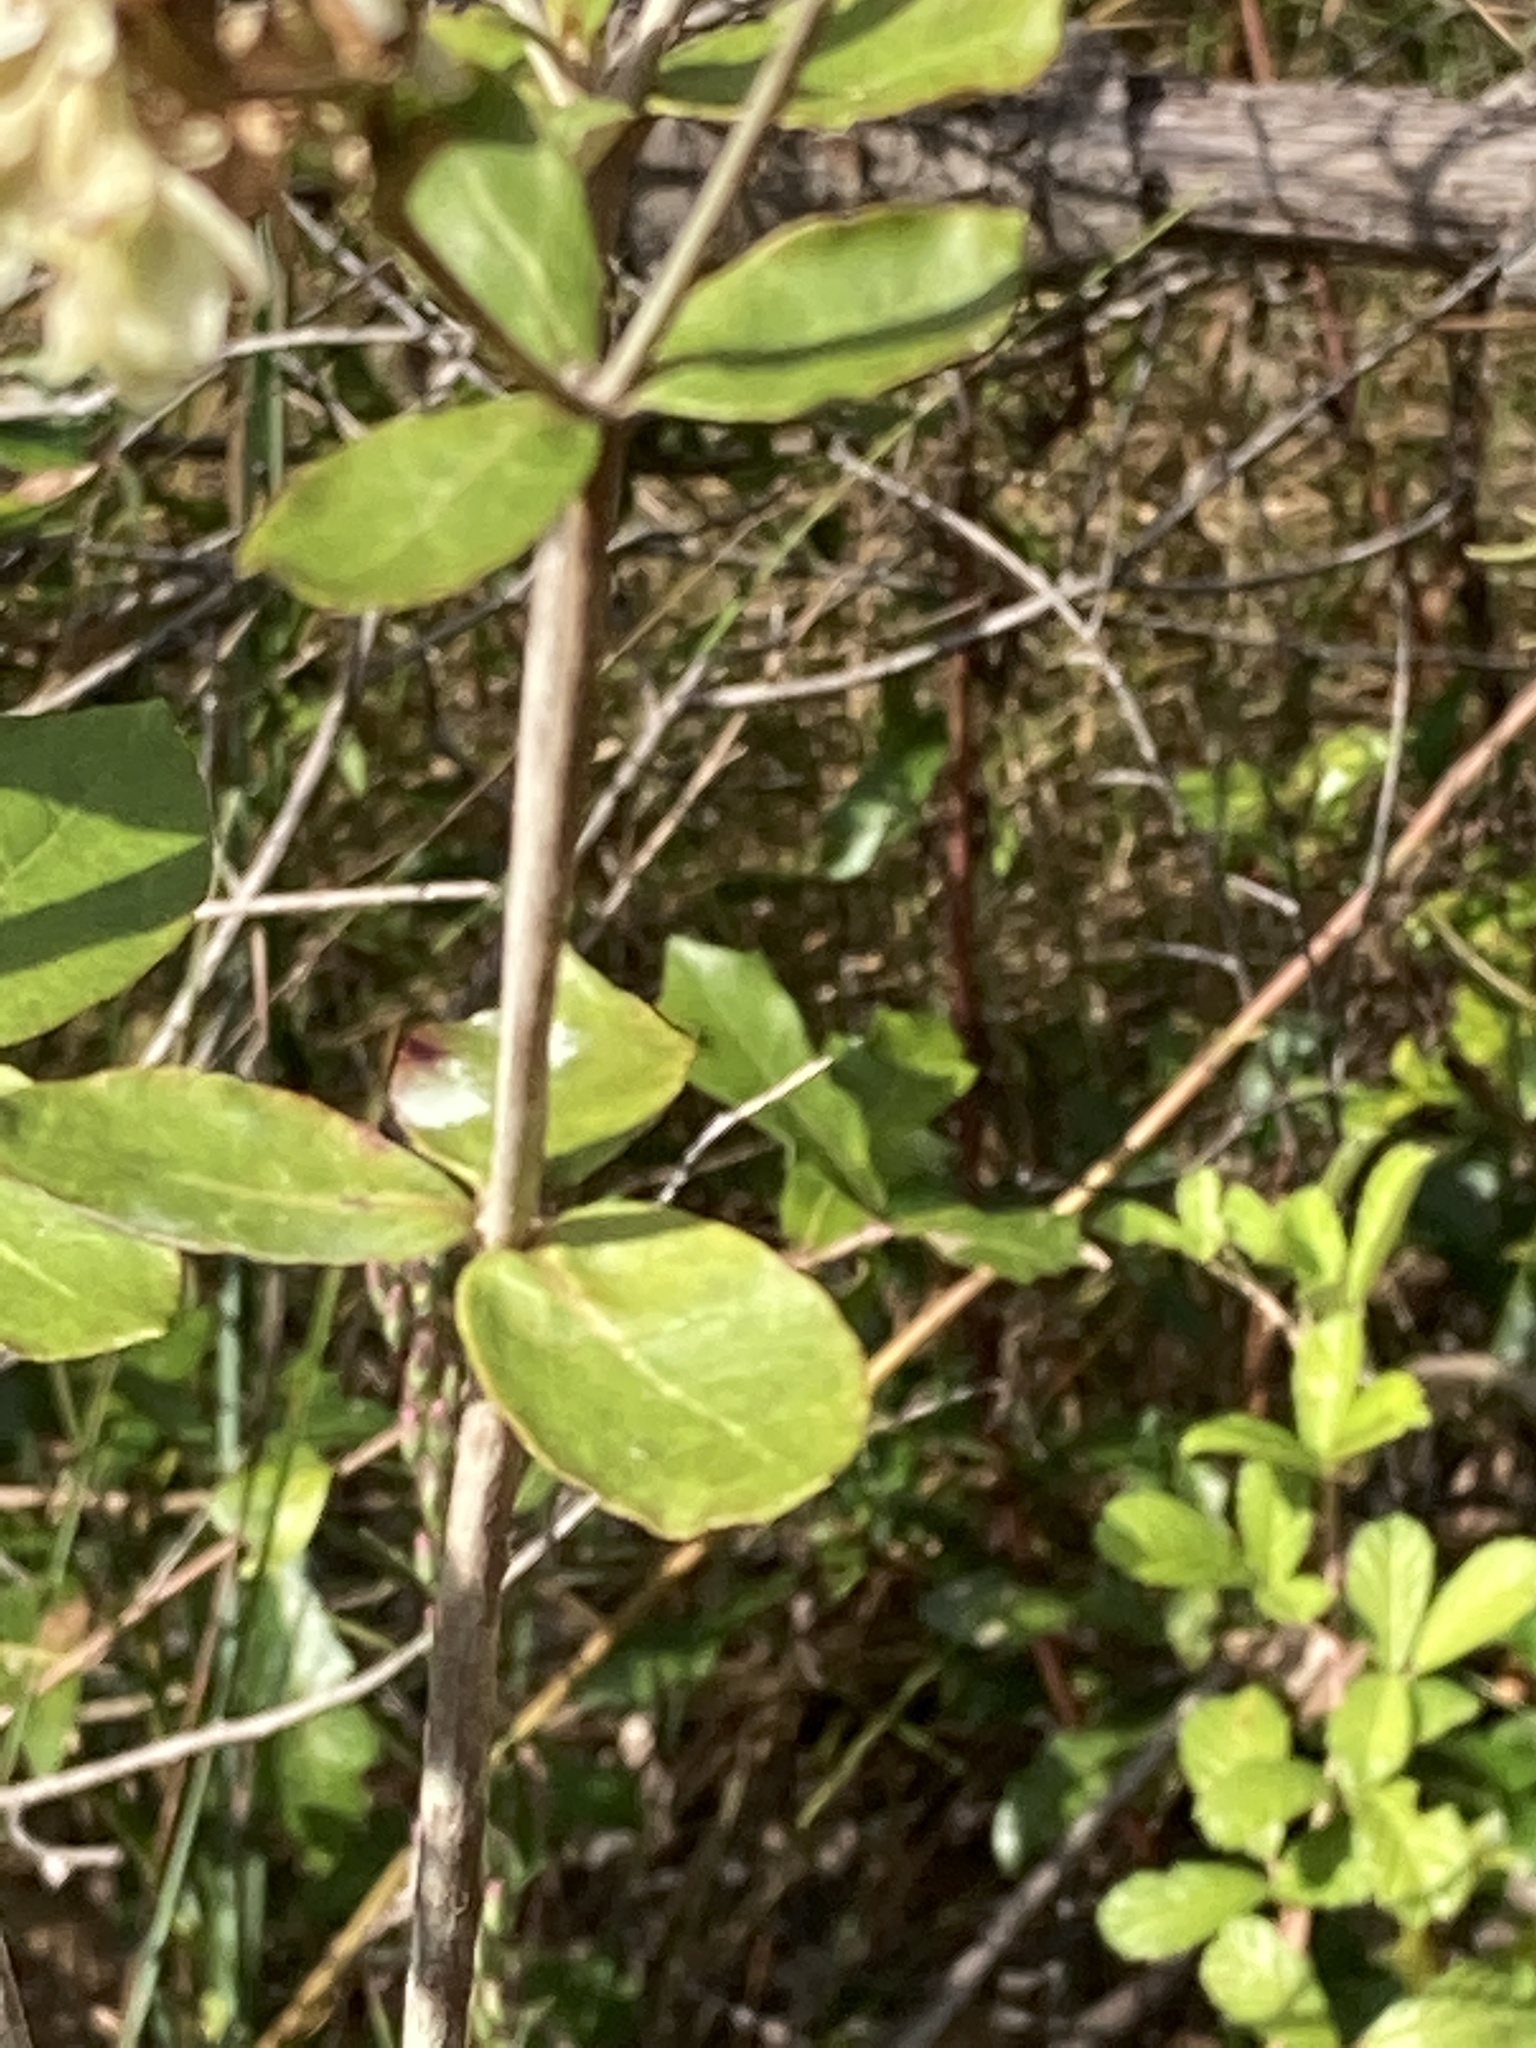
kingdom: Plantae
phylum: Tracheophyta
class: Magnoliopsida
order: Caryophyllales
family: Polygonaceae
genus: Eriogonum
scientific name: Eriogonum tomentosum
